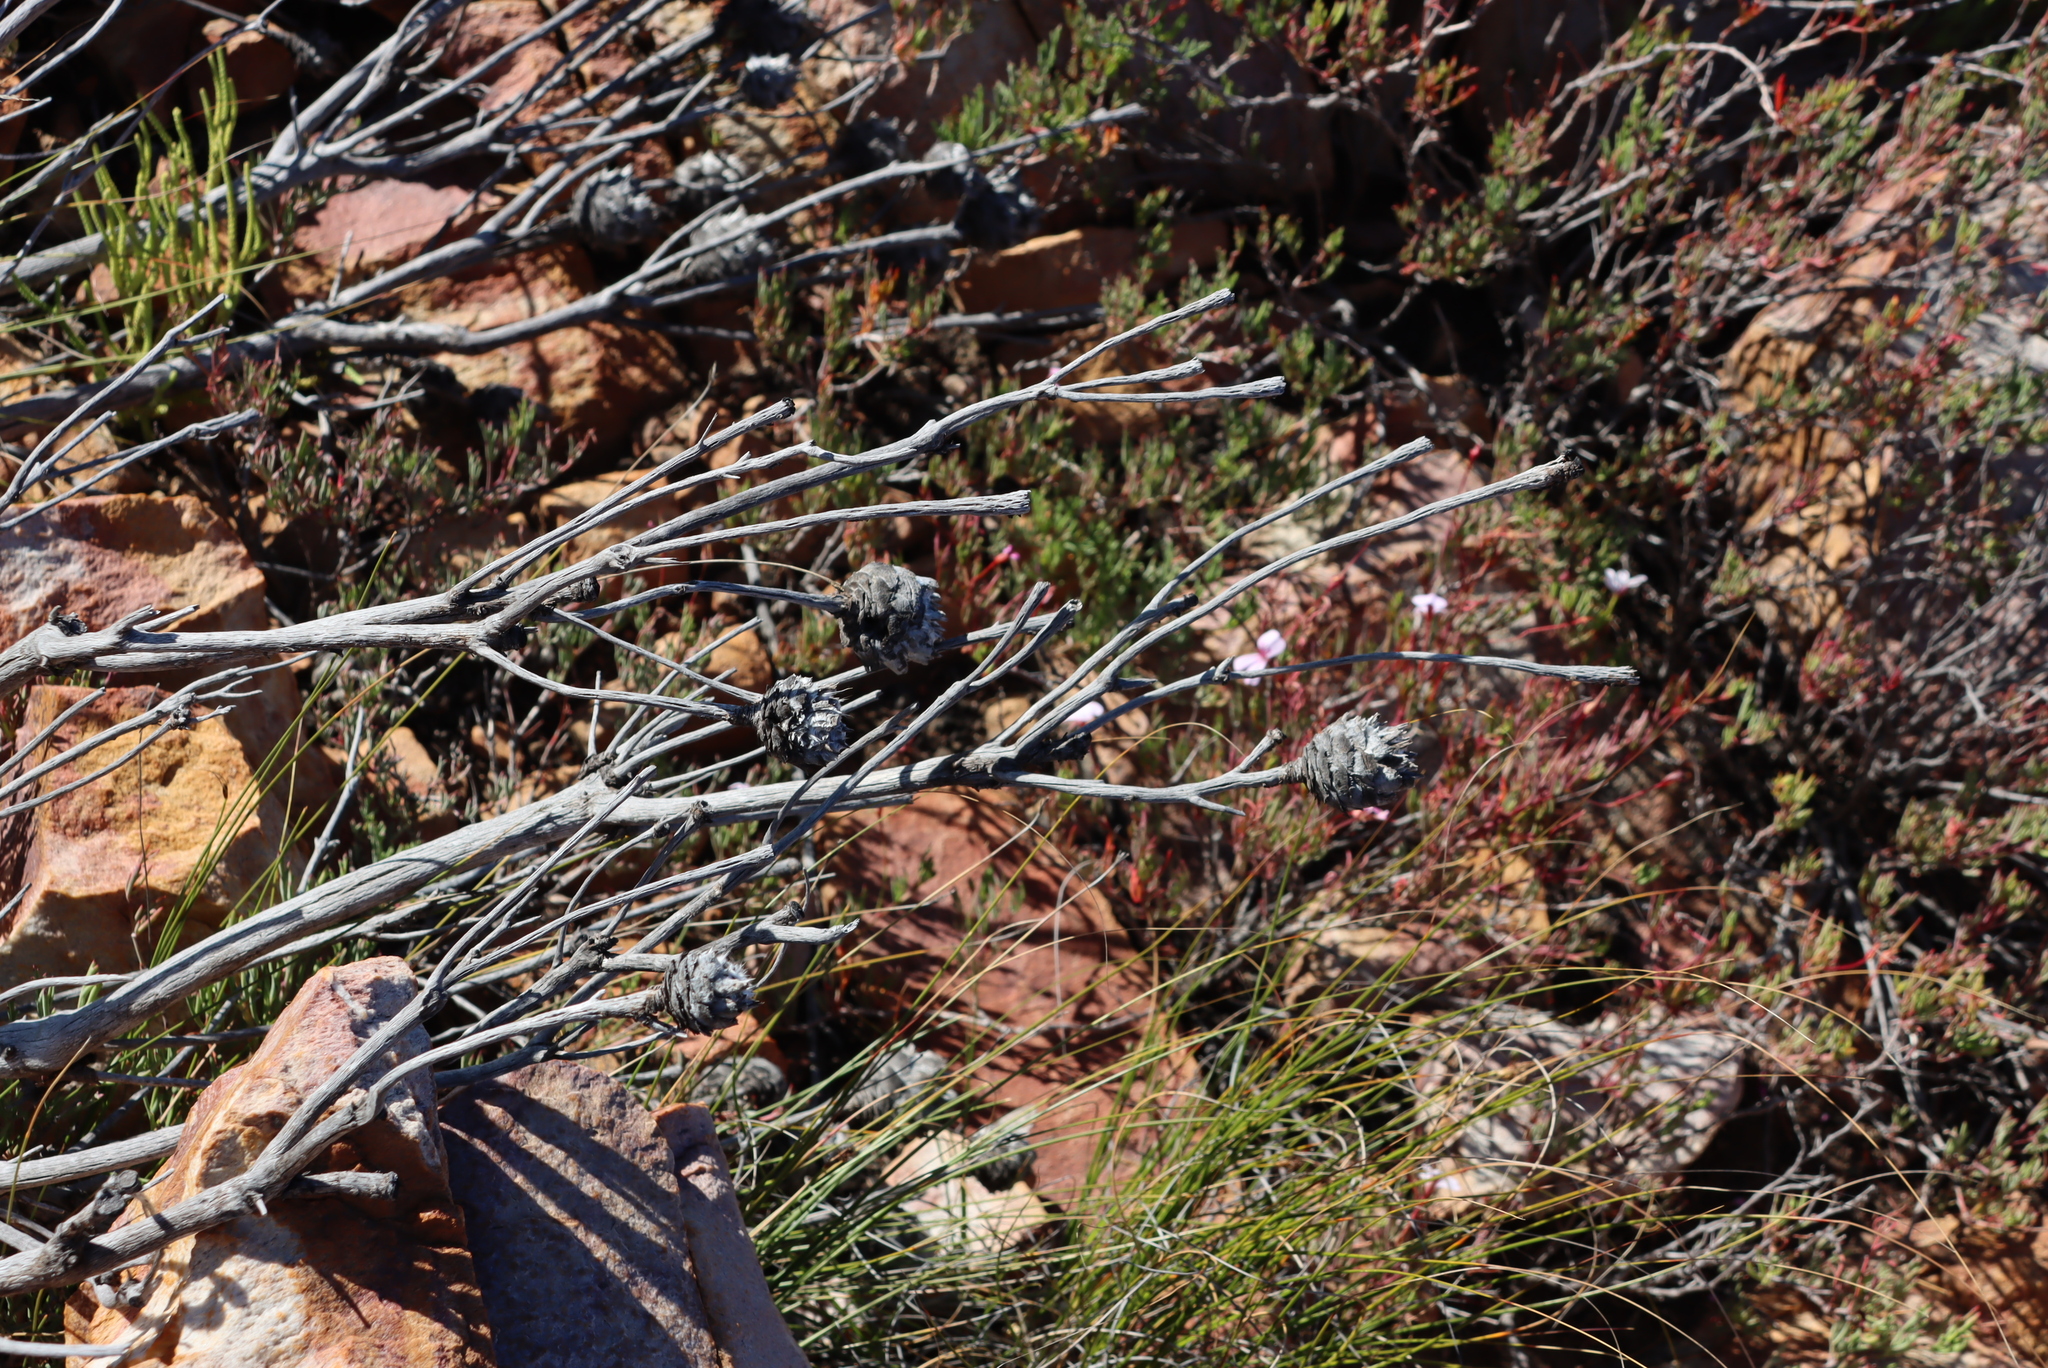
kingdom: Plantae
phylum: Tracheophyta
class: Magnoliopsida
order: Proteales
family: Proteaceae
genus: Leucadendron
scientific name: Leucadendron rubrum
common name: Spinning top
